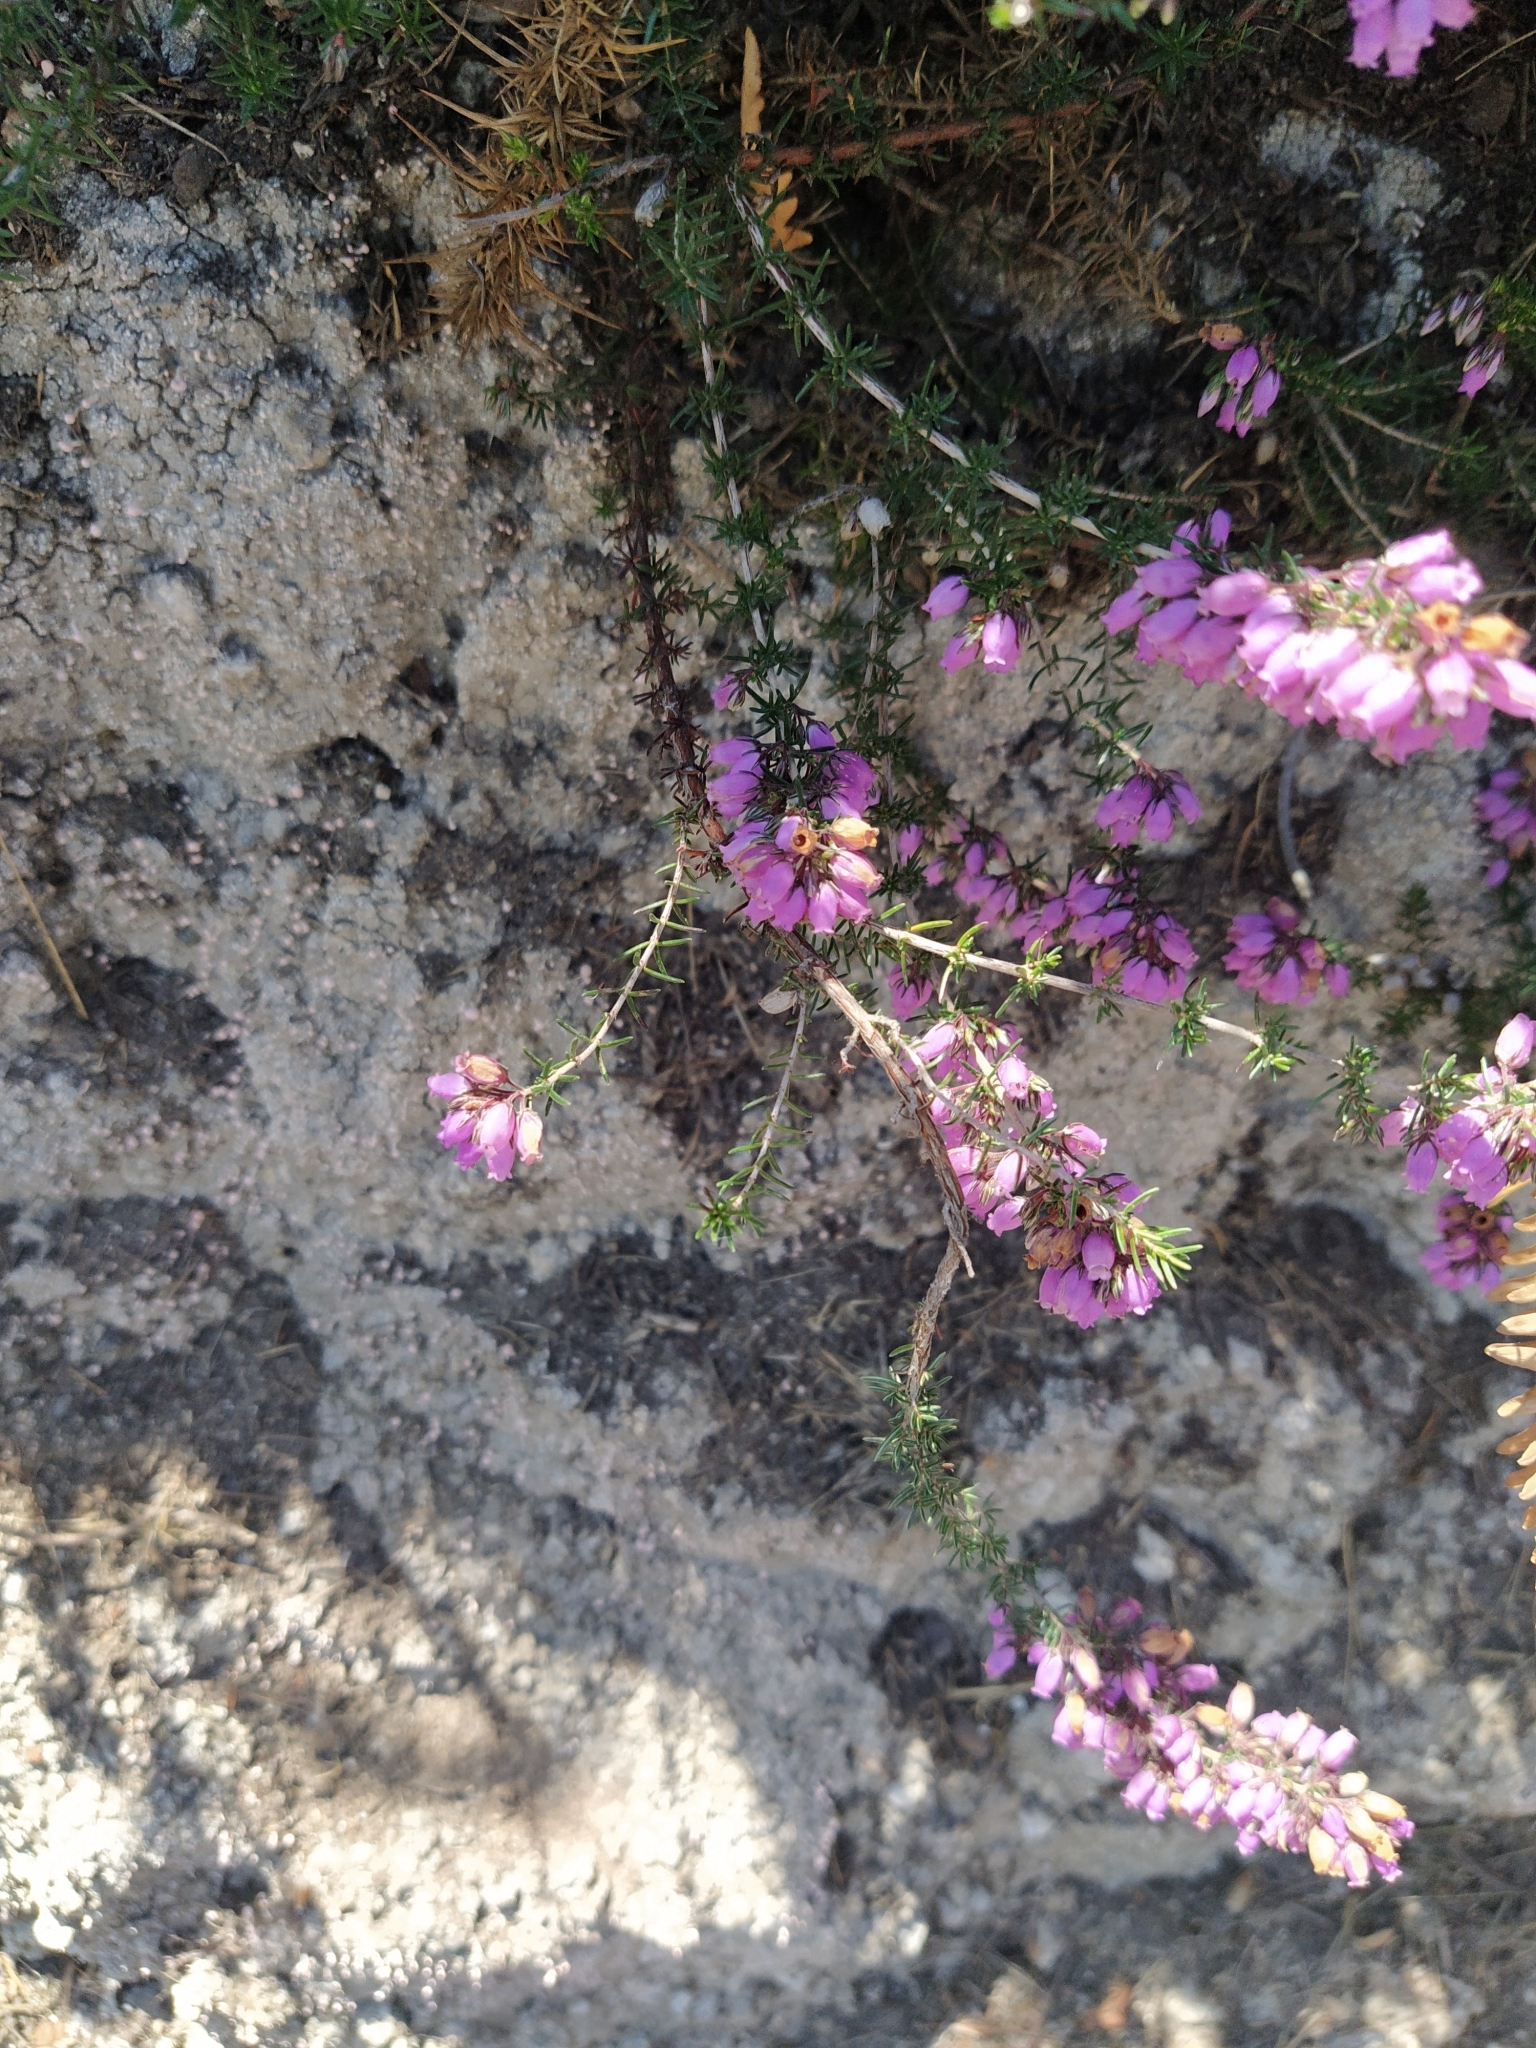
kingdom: Plantae
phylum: Tracheophyta
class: Magnoliopsida
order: Ericales
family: Ericaceae
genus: Erica
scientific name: Erica cinerea
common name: Bell heather
